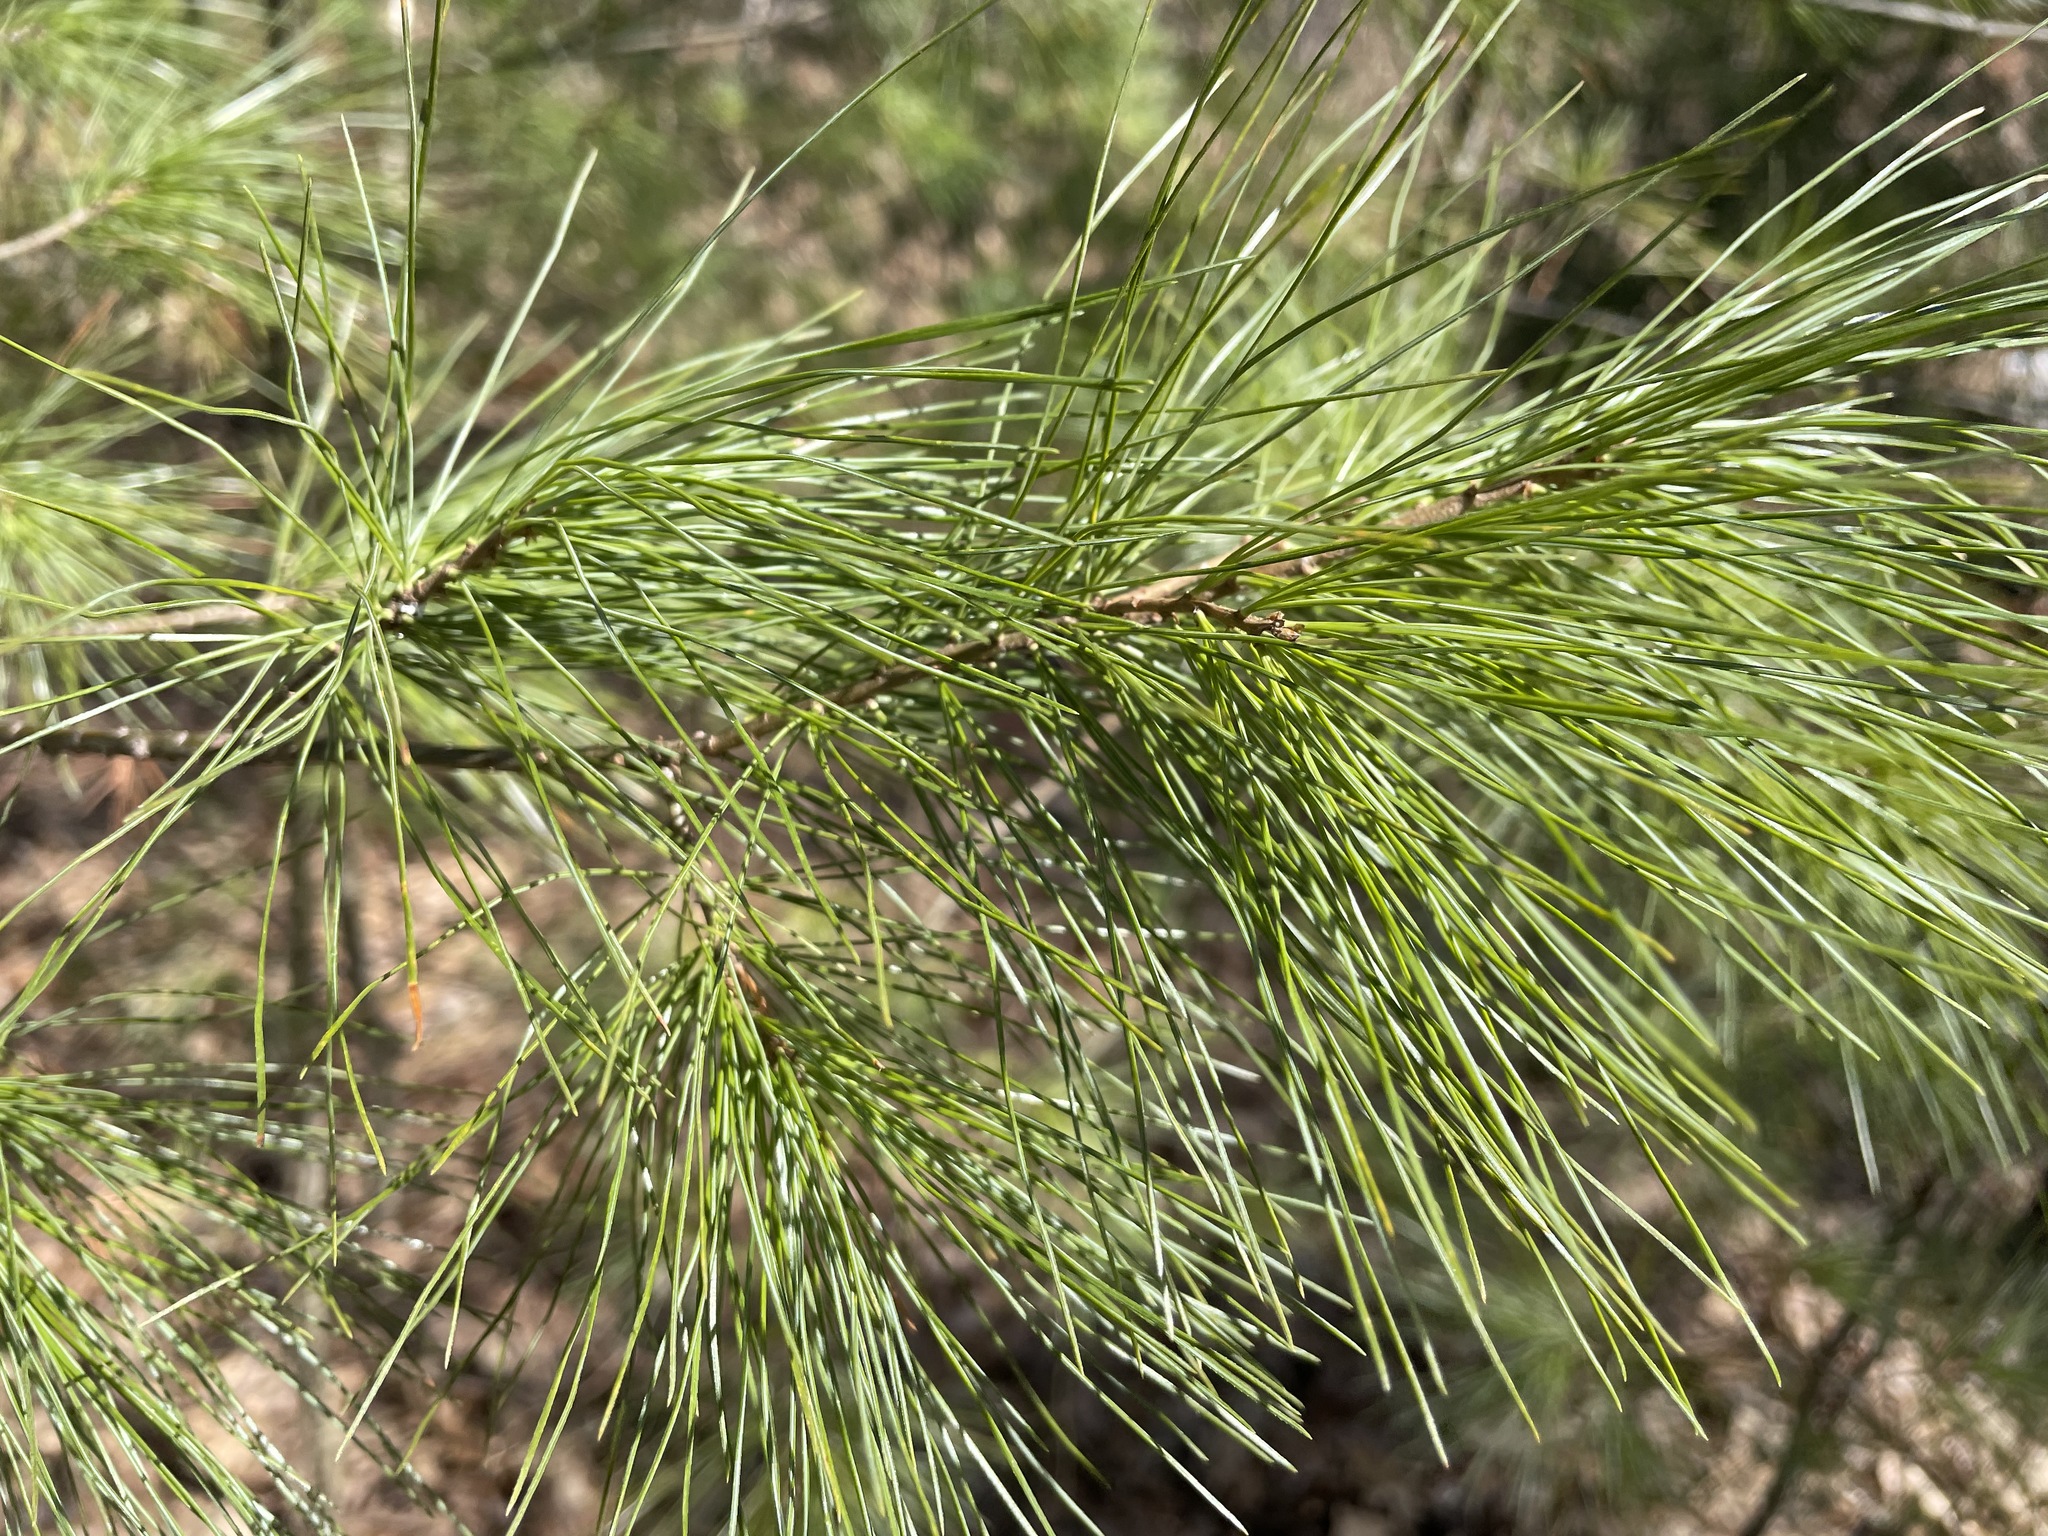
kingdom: Plantae
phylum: Tracheophyta
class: Pinopsida
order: Pinales
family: Pinaceae
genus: Pinus
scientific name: Pinus strobus
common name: Weymouth pine
